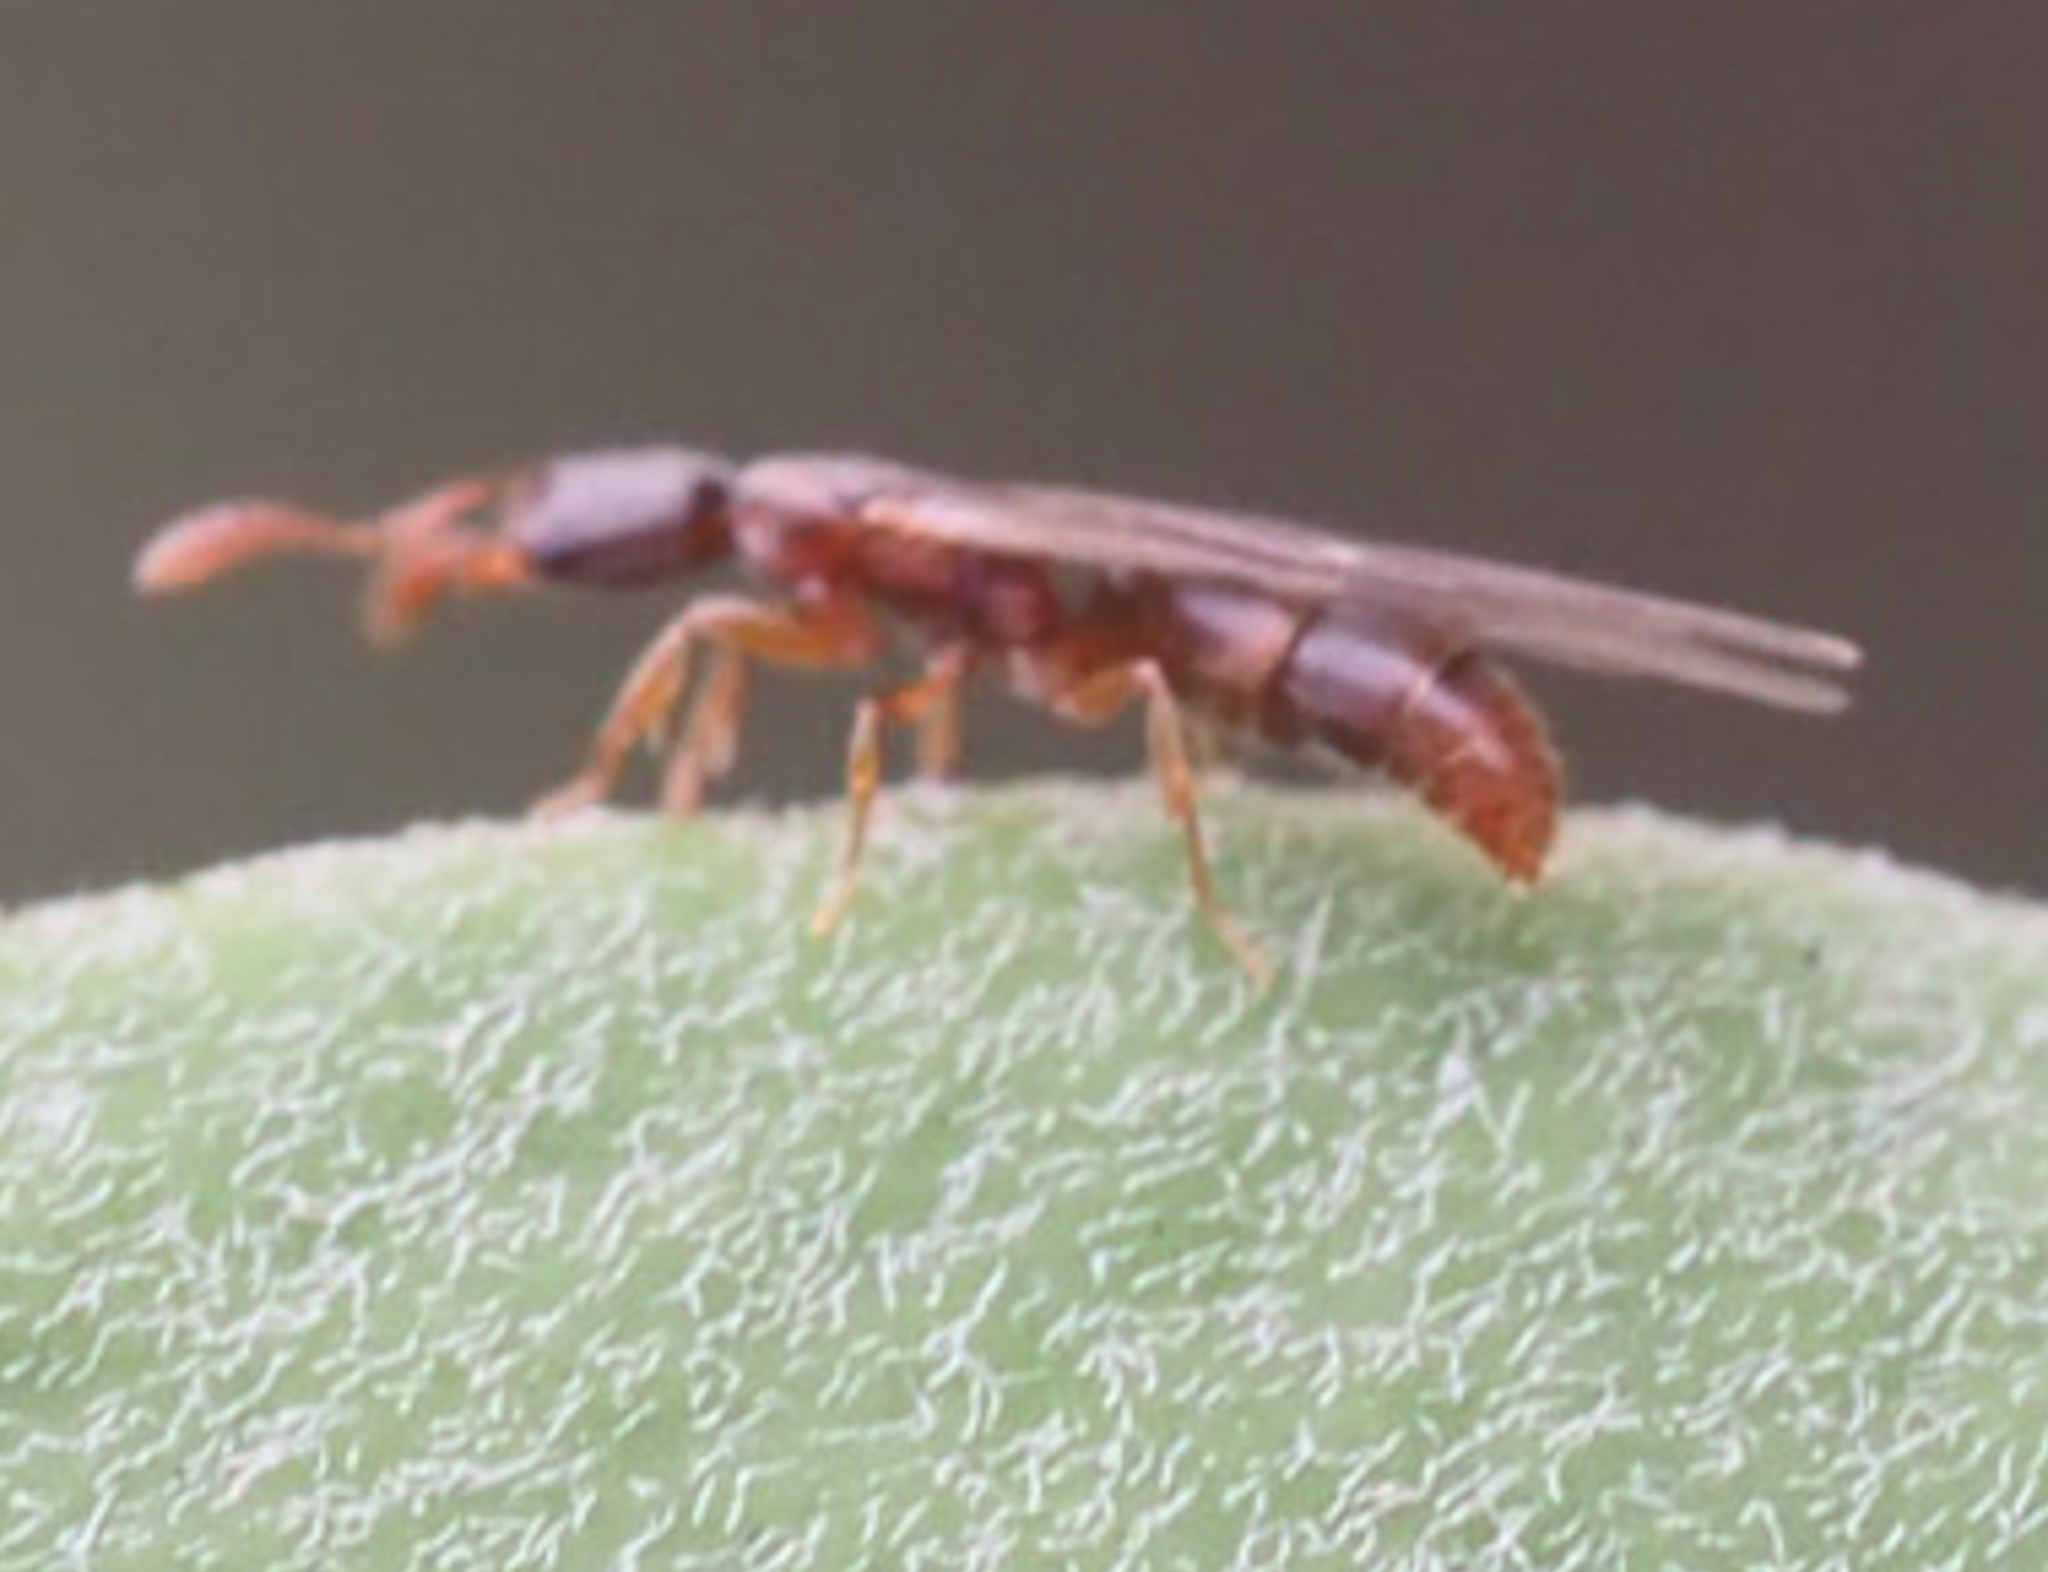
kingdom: Animalia
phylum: Arthropoda
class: Insecta
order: Hymenoptera
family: Formicidae
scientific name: Formicidae
